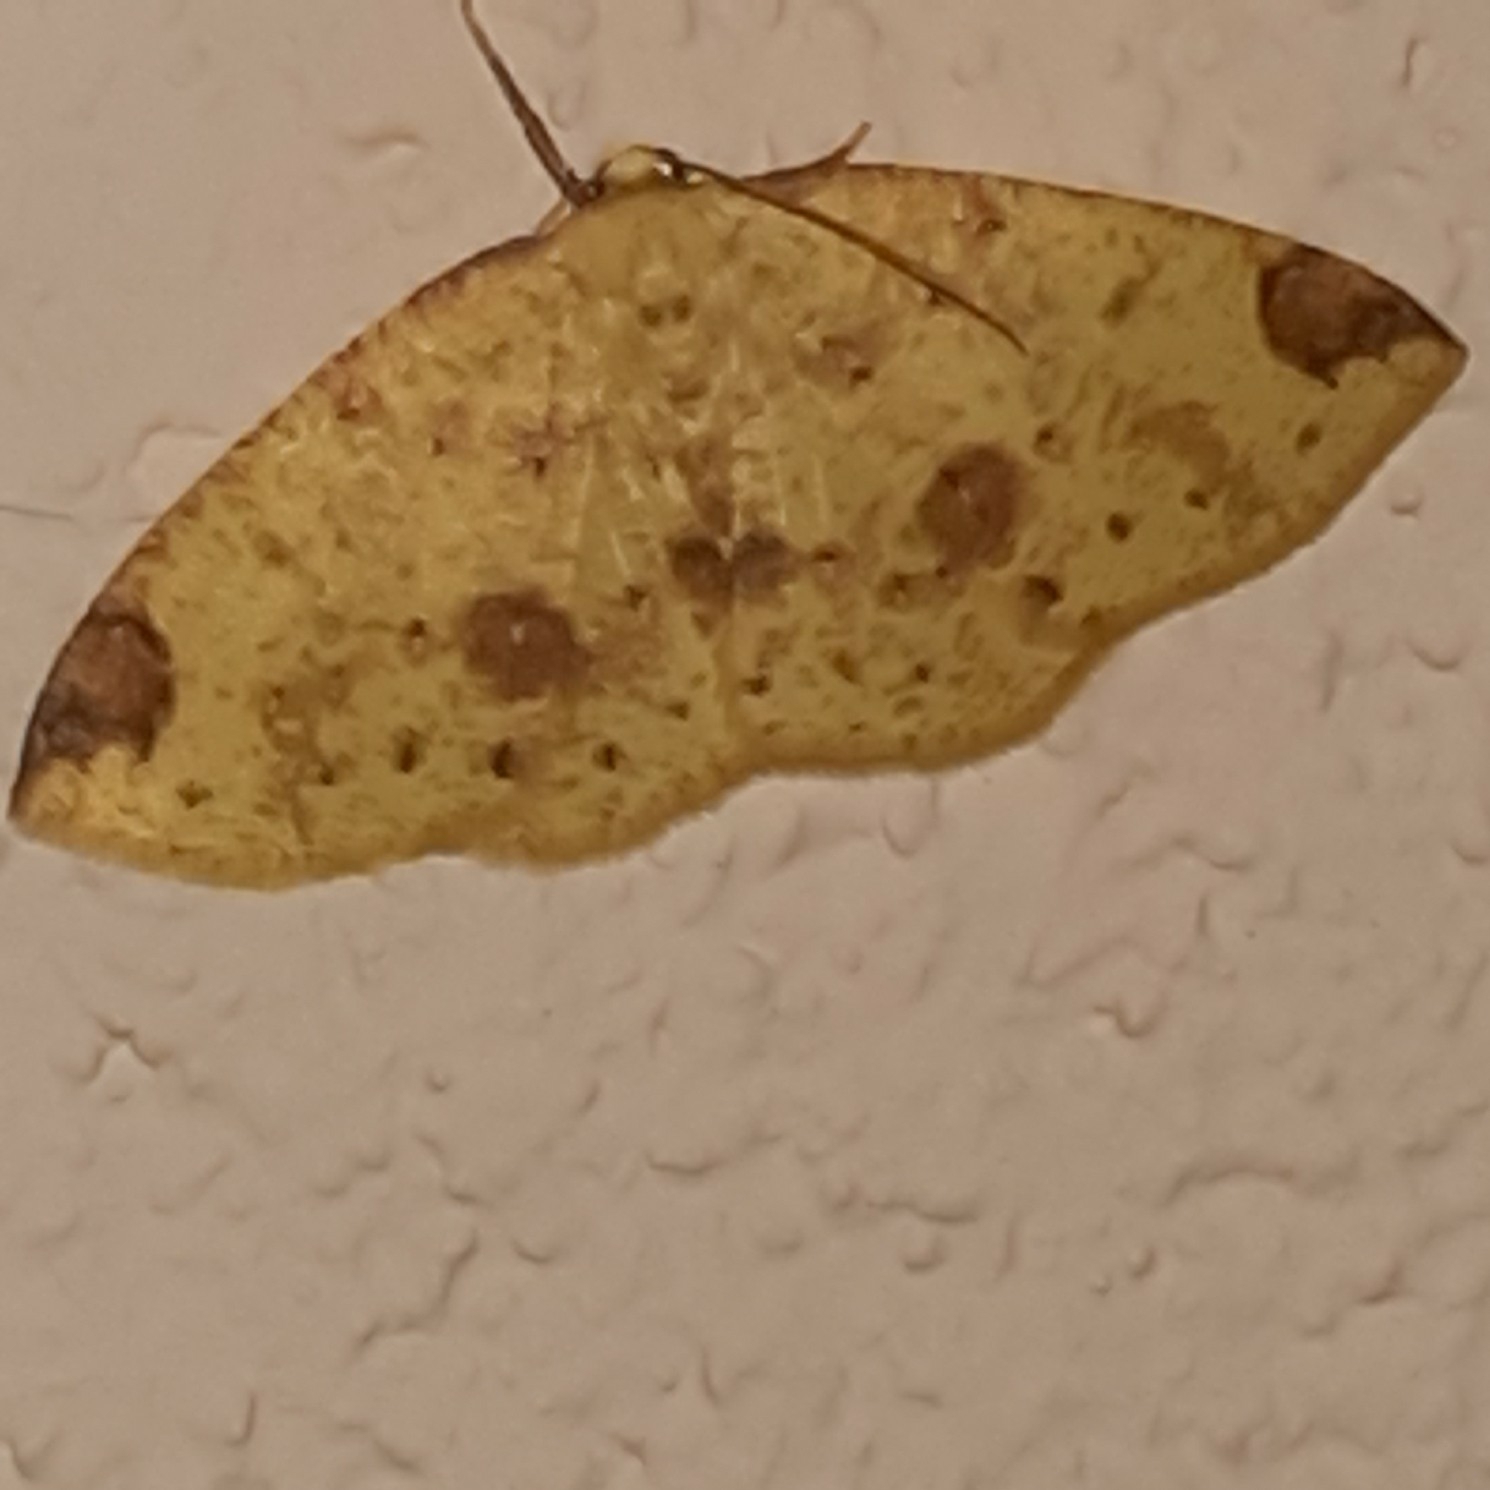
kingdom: Animalia
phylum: Arthropoda
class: Insecta
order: Lepidoptera
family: Geometridae
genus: Periclina
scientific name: Periclina apricaria
